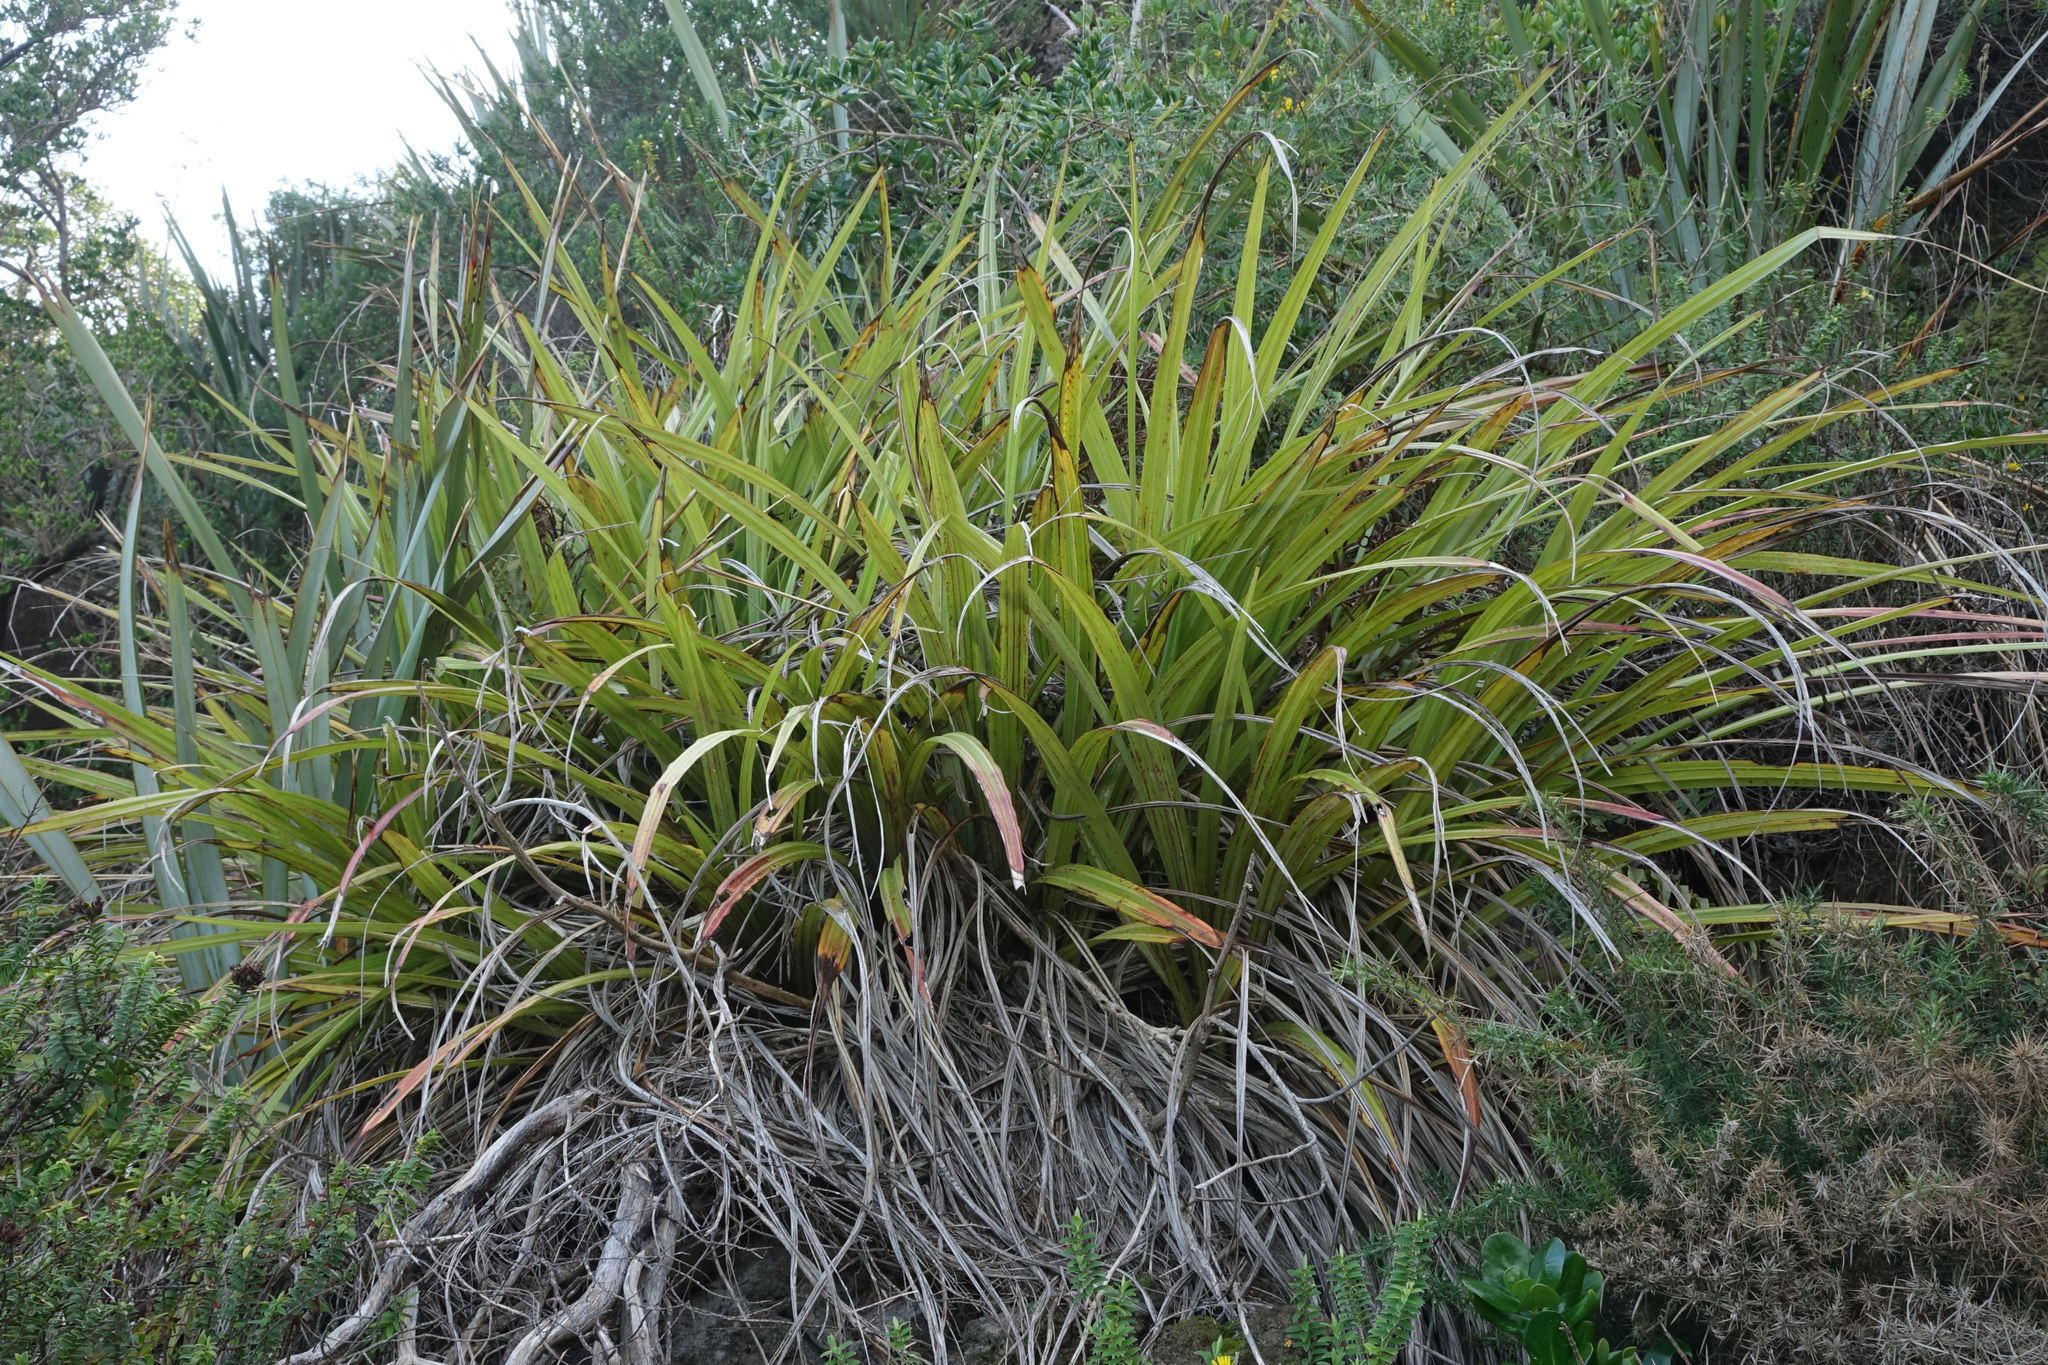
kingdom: Plantae
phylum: Tracheophyta
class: Liliopsida
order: Asparagales
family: Asteliaceae
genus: Astelia
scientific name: Astelia fragrans
